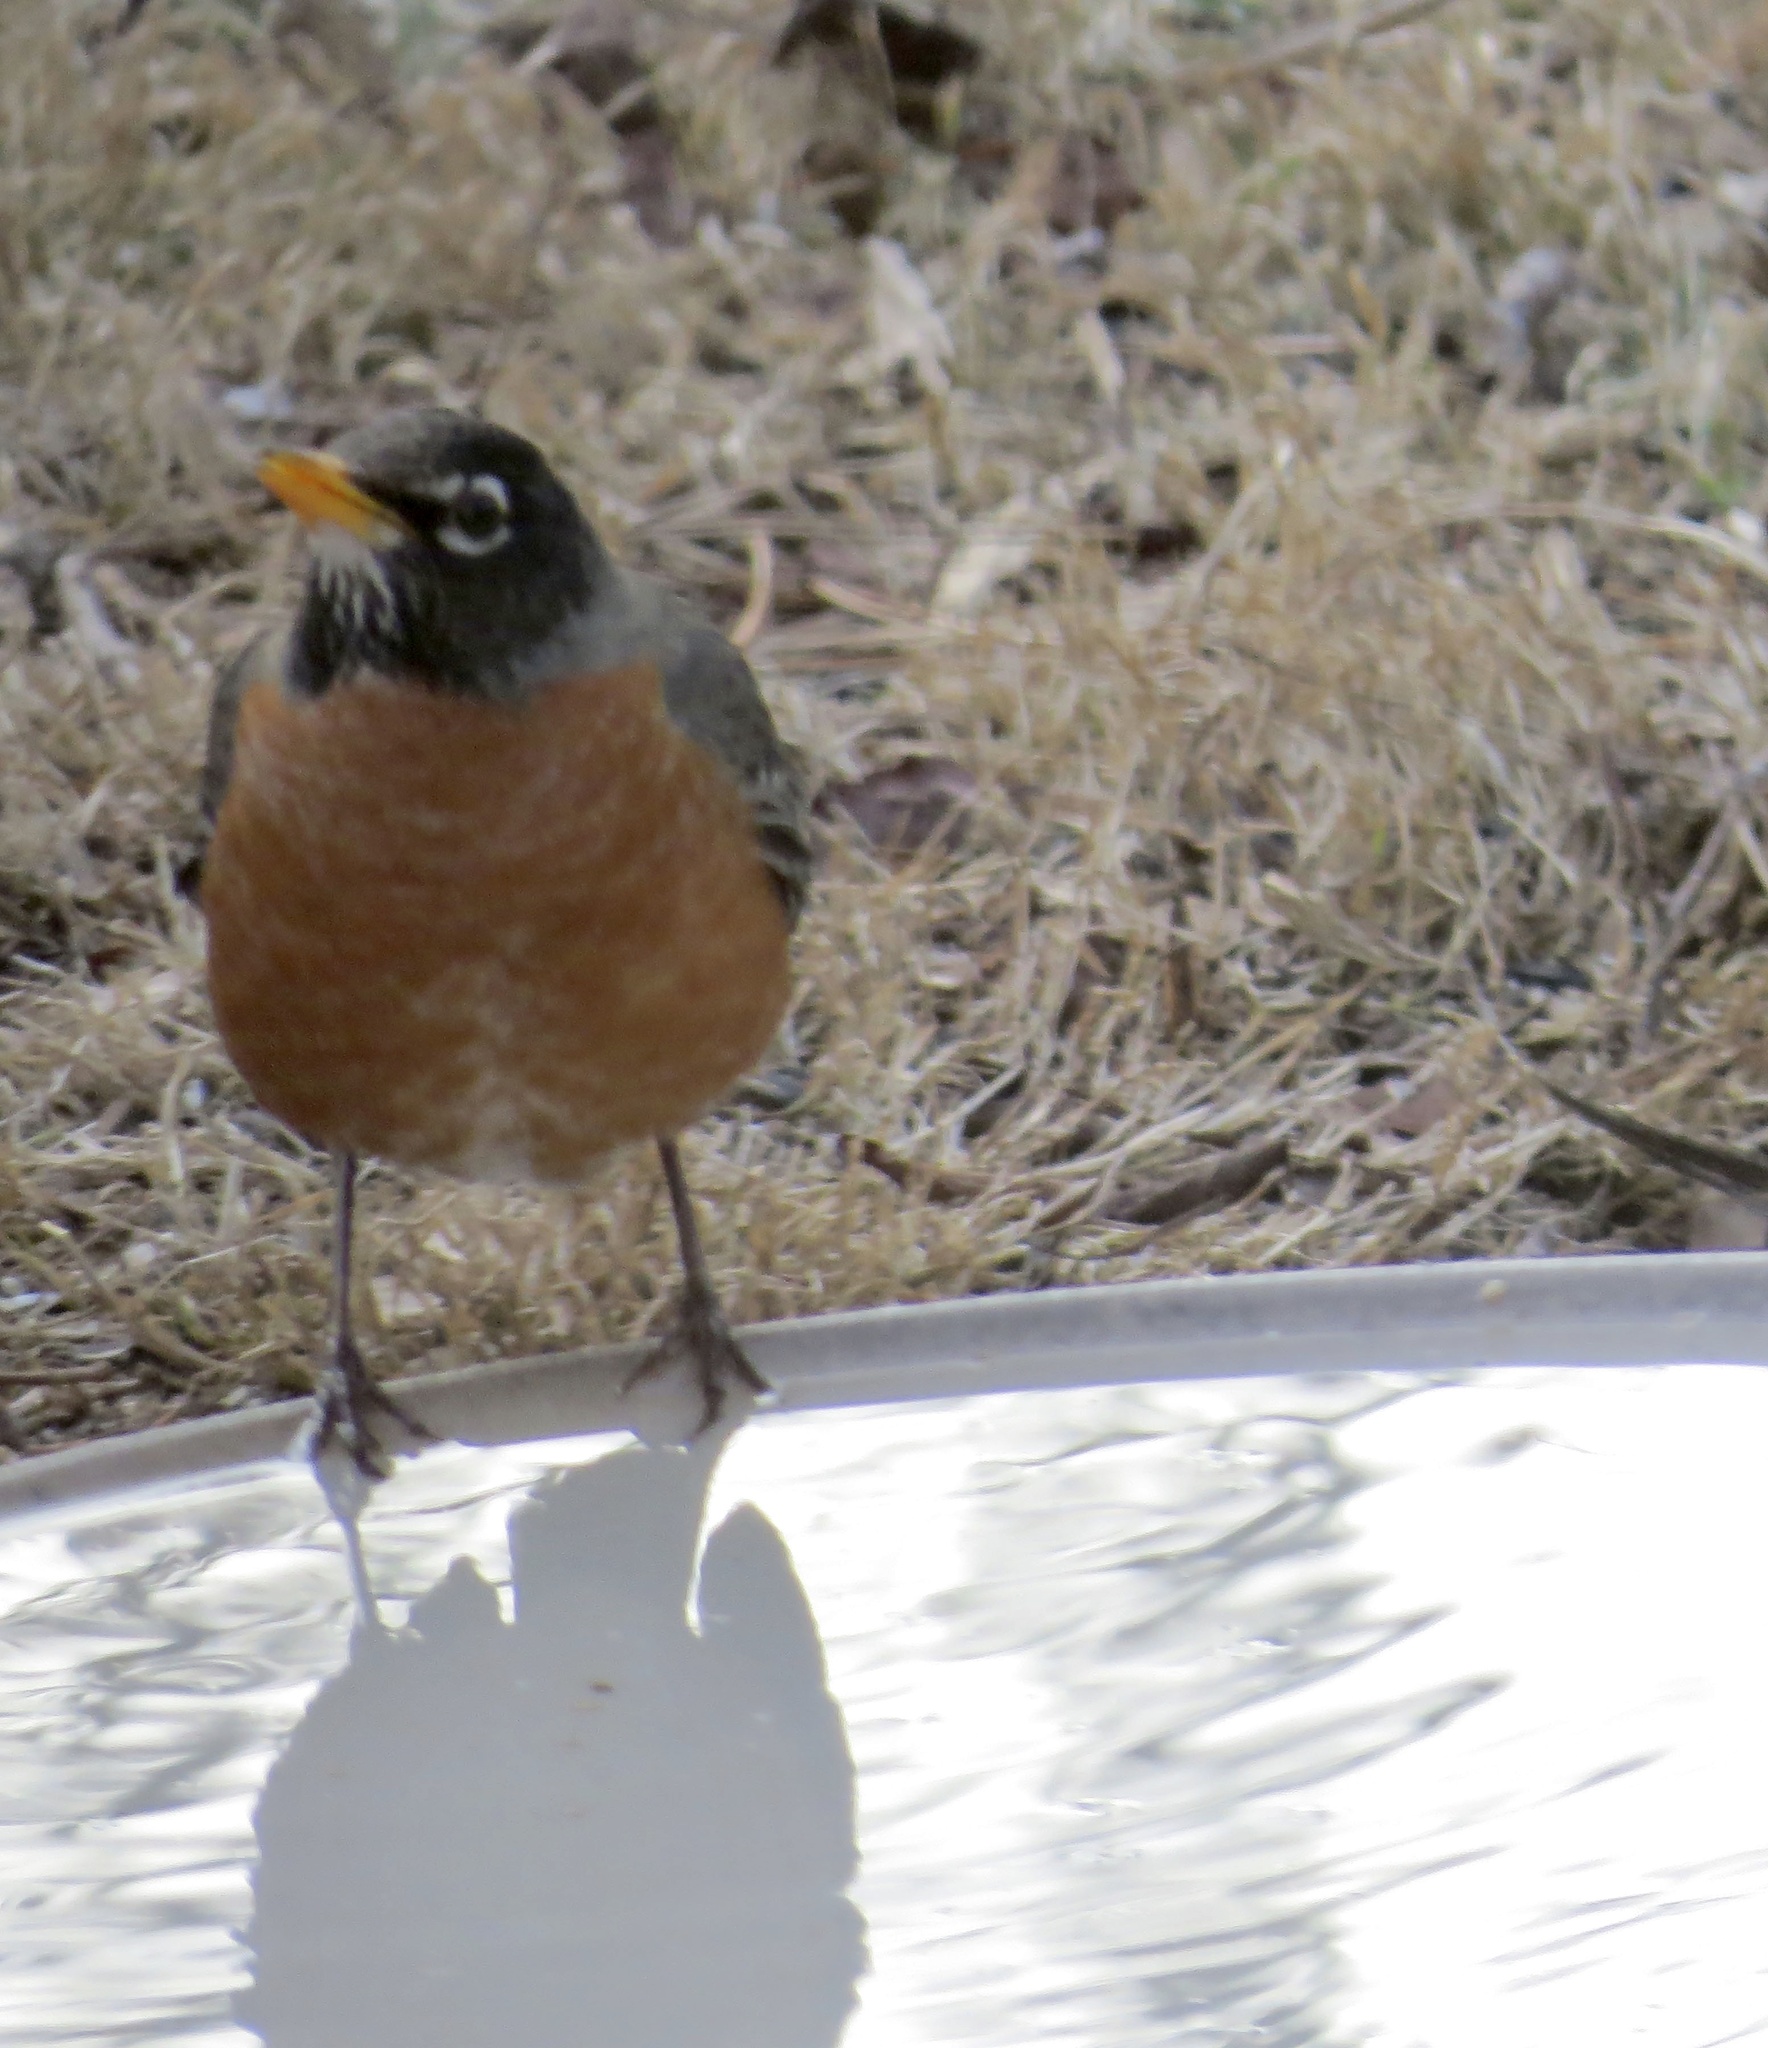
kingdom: Animalia
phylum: Chordata
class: Aves
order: Passeriformes
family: Turdidae
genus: Turdus
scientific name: Turdus migratorius
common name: American robin
